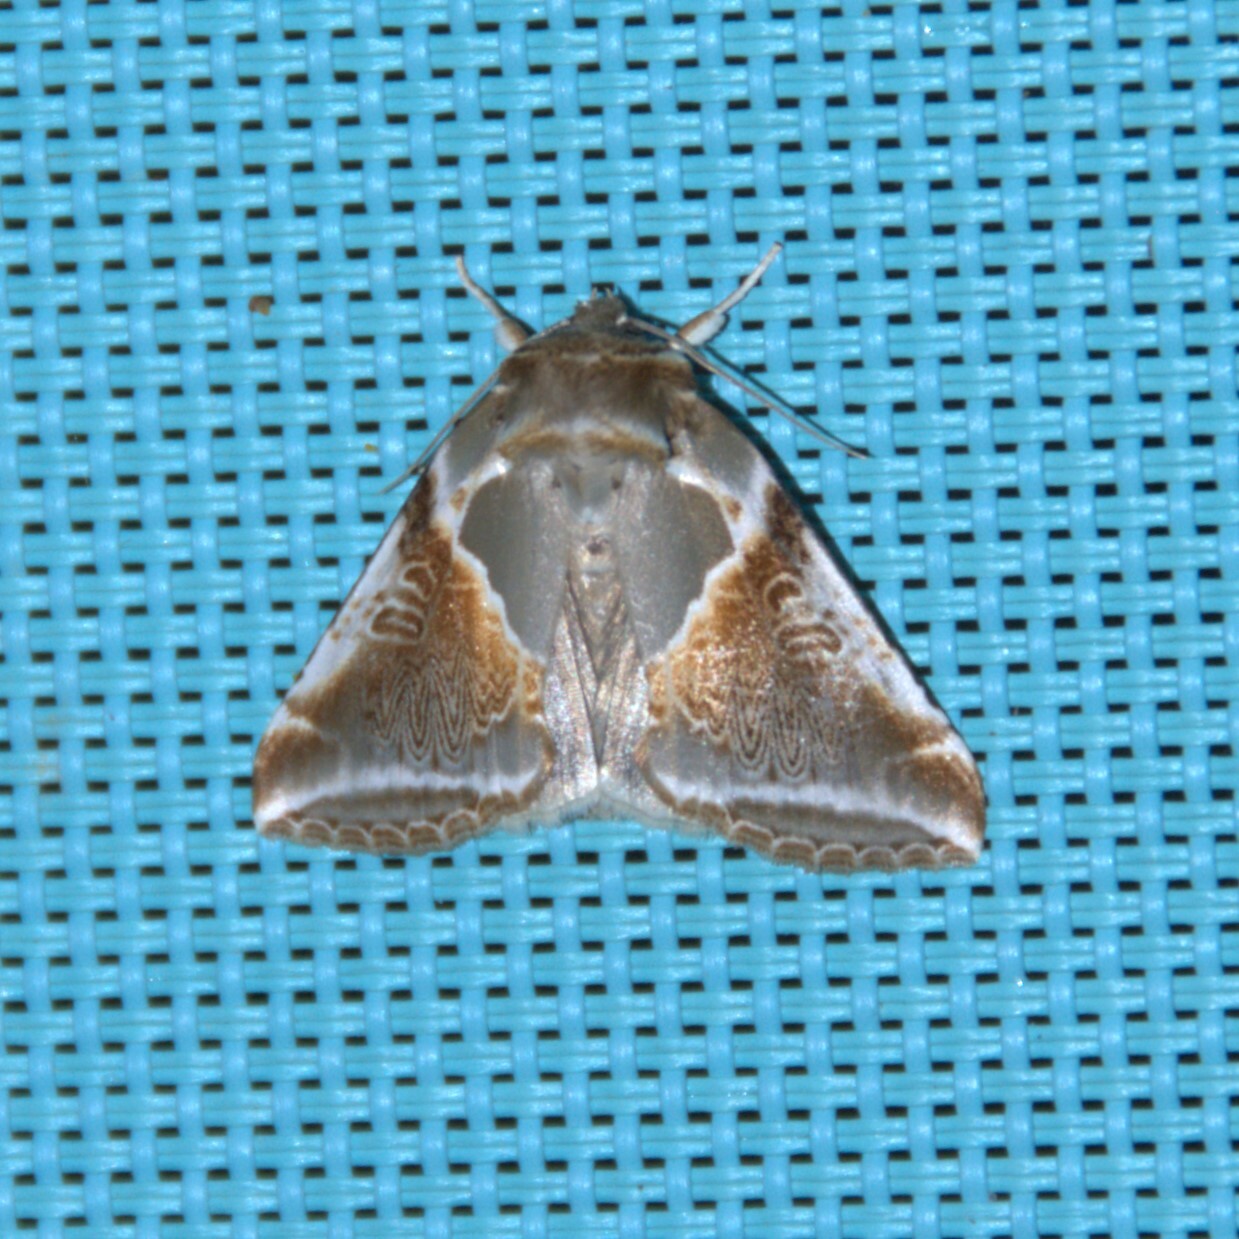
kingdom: Animalia
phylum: Arthropoda
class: Insecta
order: Lepidoptera
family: Drepanidae
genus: Habrosyne
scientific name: Habrosyne pyritoides
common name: Buff arches
